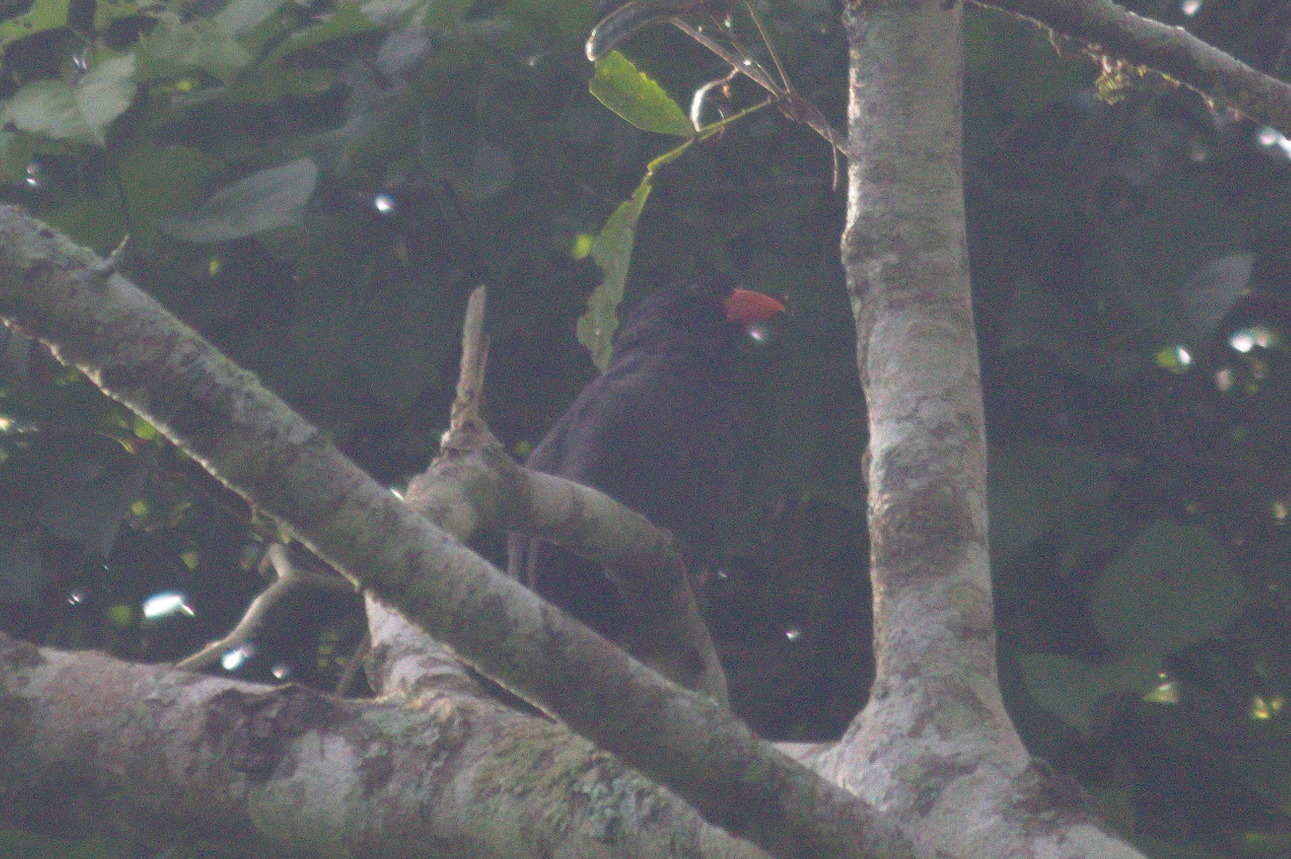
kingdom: Animalia
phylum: Chordata
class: Aves
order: Passeriformes
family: Thraupidae
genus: Saltator
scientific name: Saltator fuliginosus
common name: Black-throated grosbeak
